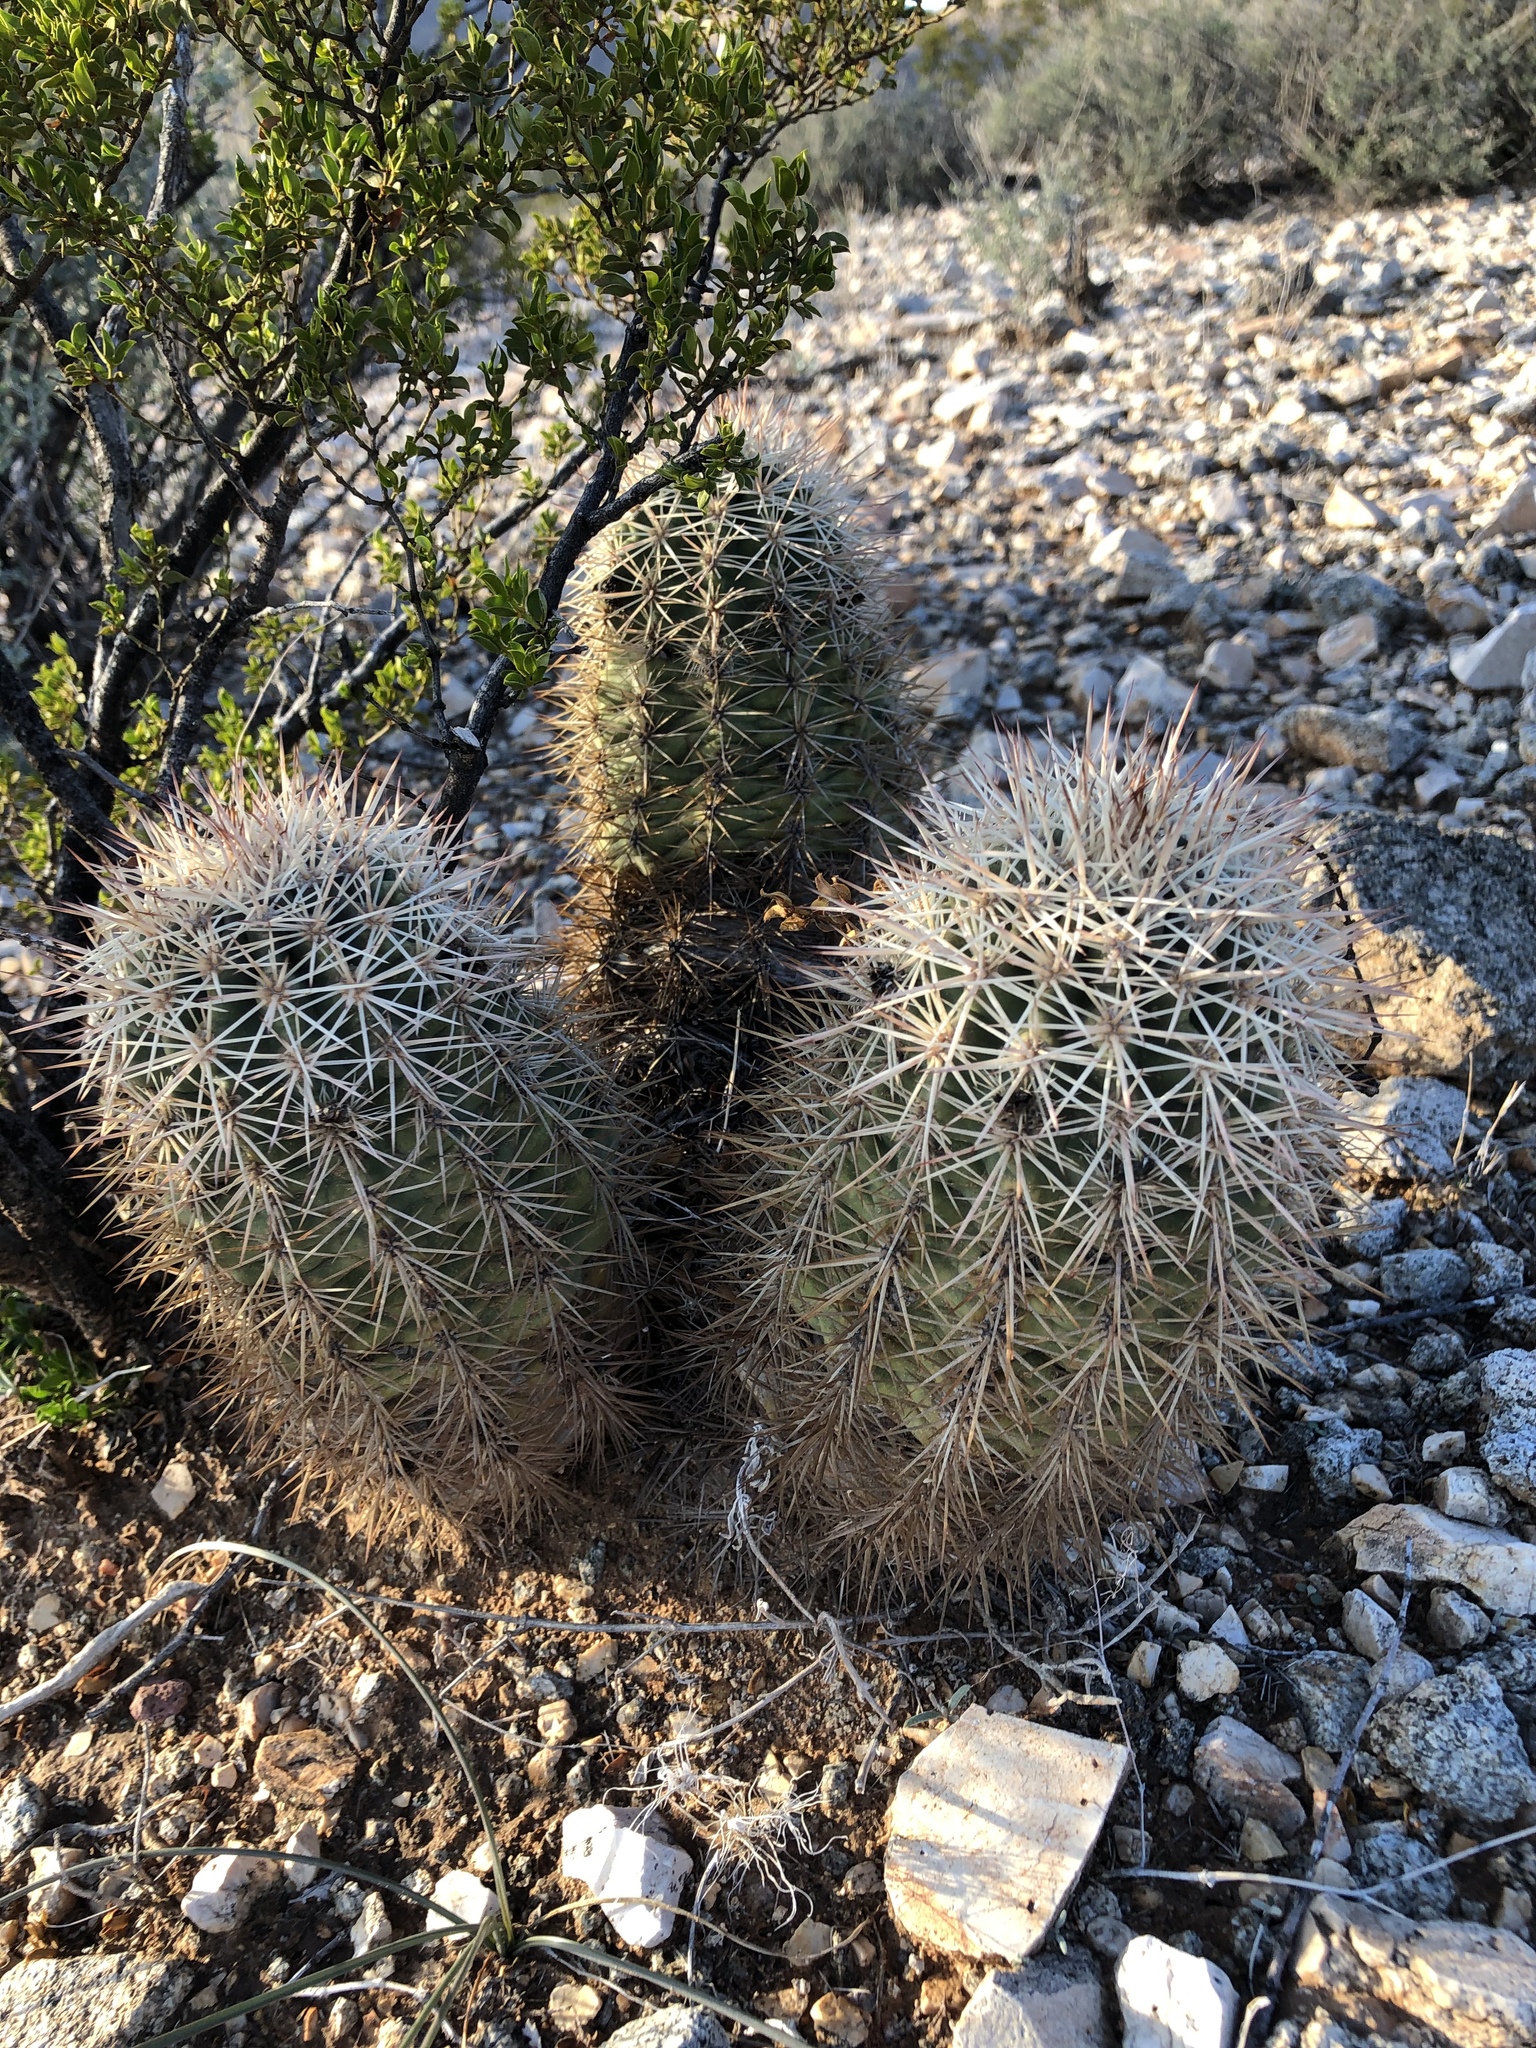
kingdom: Plantae
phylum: Tracheophyta
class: Magnoliopsida
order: Caryophyllales
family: Cactaceae
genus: Echinocereus
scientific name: Echinocereus roetteri
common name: Lloyd's hedgehog cactus
